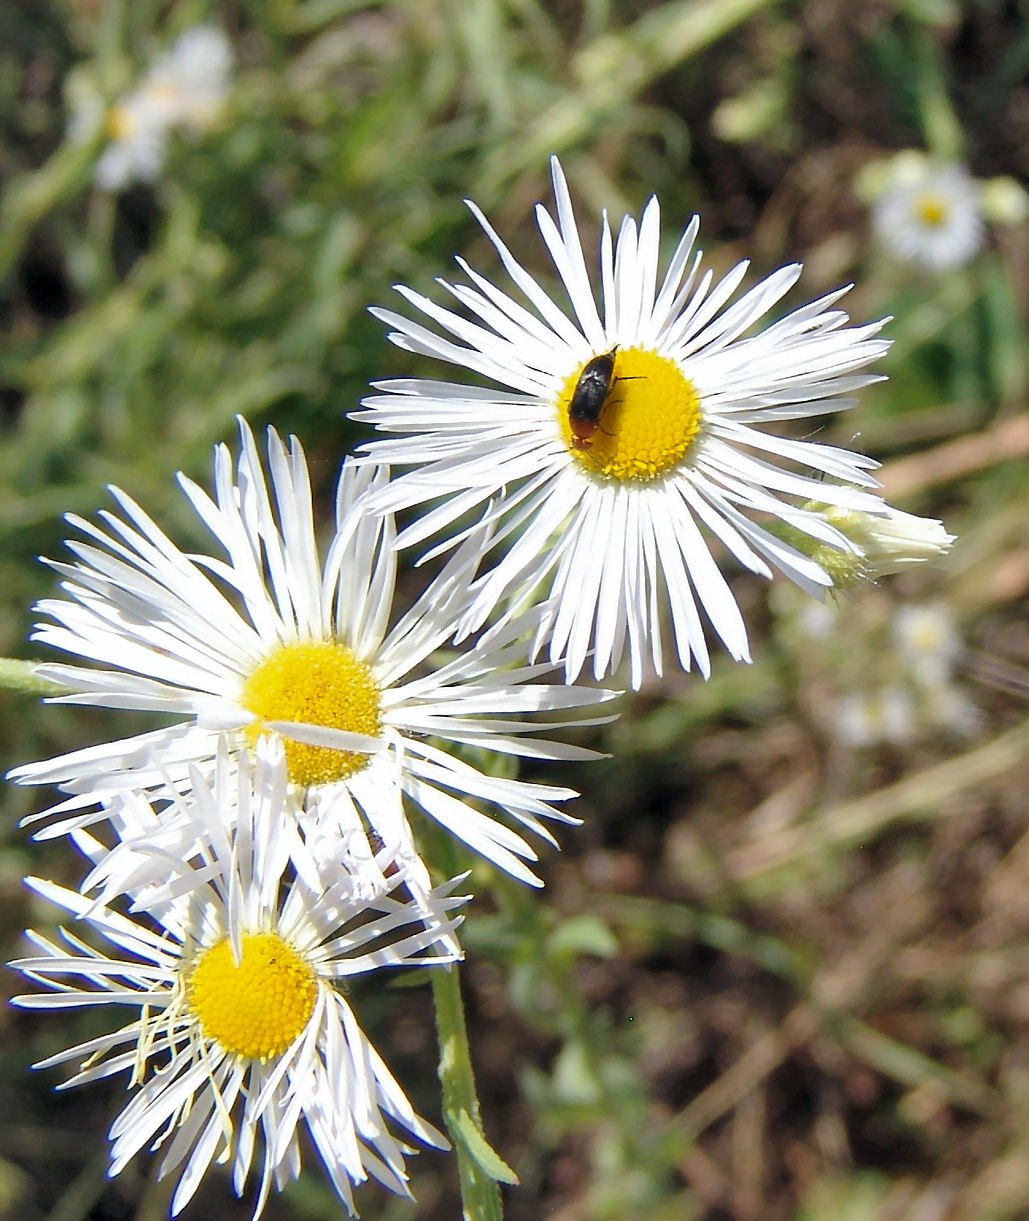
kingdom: Animalia
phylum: Arthropoda
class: Insecta
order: Coleoptera
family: Mordellidae
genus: Mordellistena
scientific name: Mordellistena cervicalis
